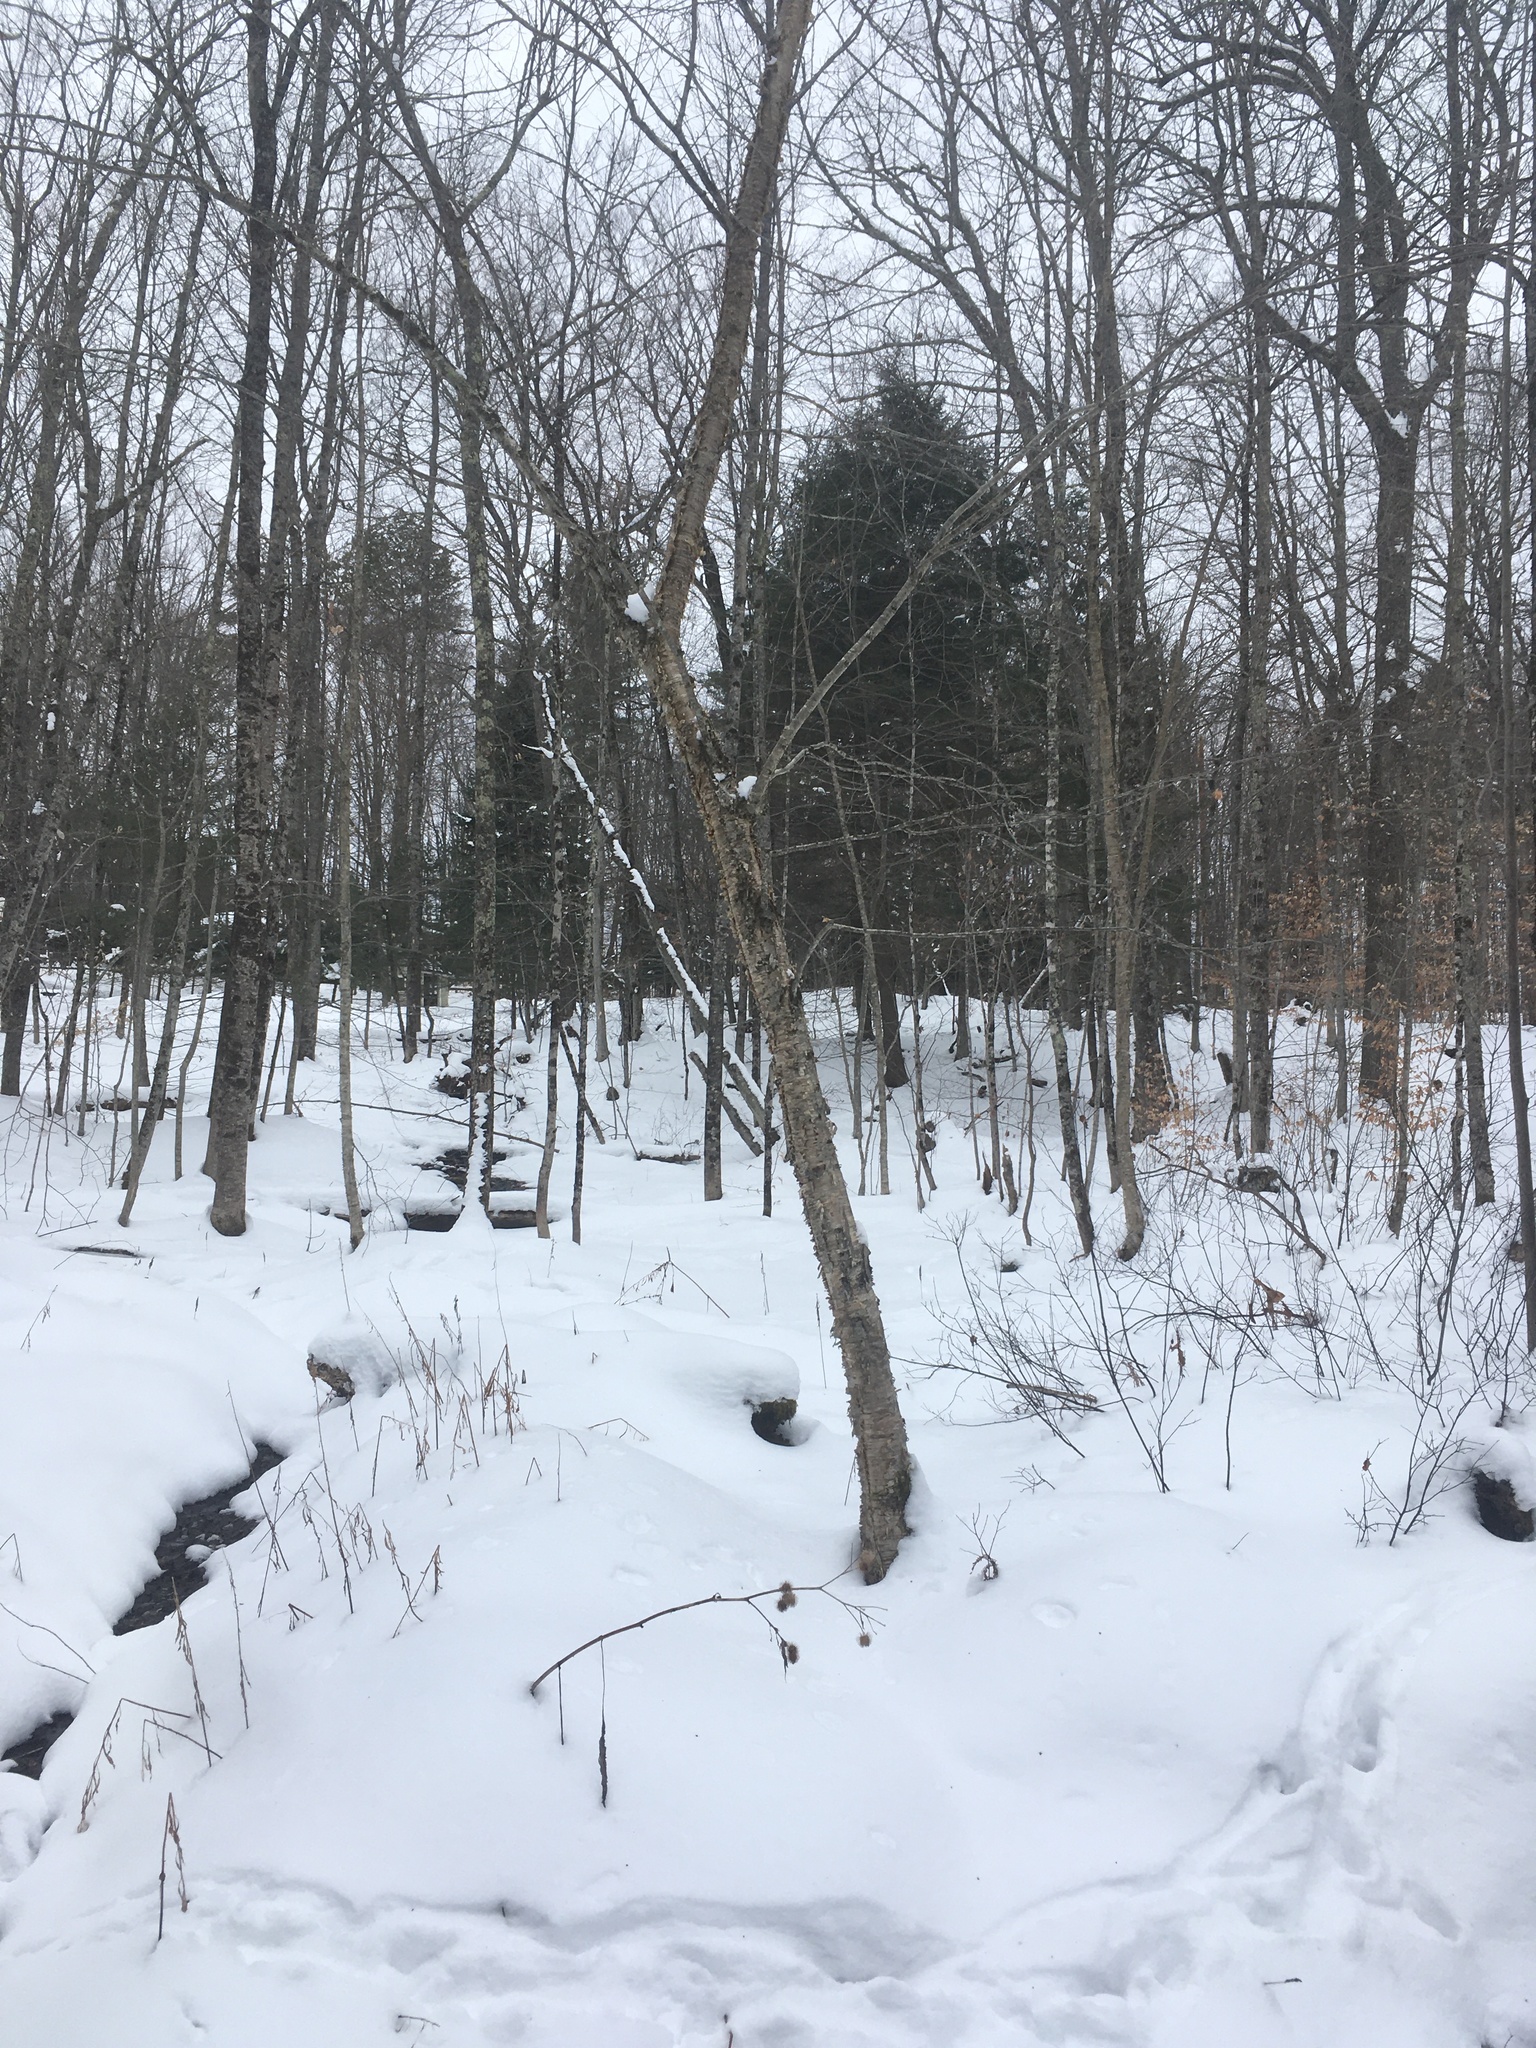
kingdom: Plantae
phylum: Tracheophyta
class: Magnoliopsida
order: Fagales
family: Betulaceae
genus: Betula
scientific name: Betula alleghaniensis
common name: Yellow birch
